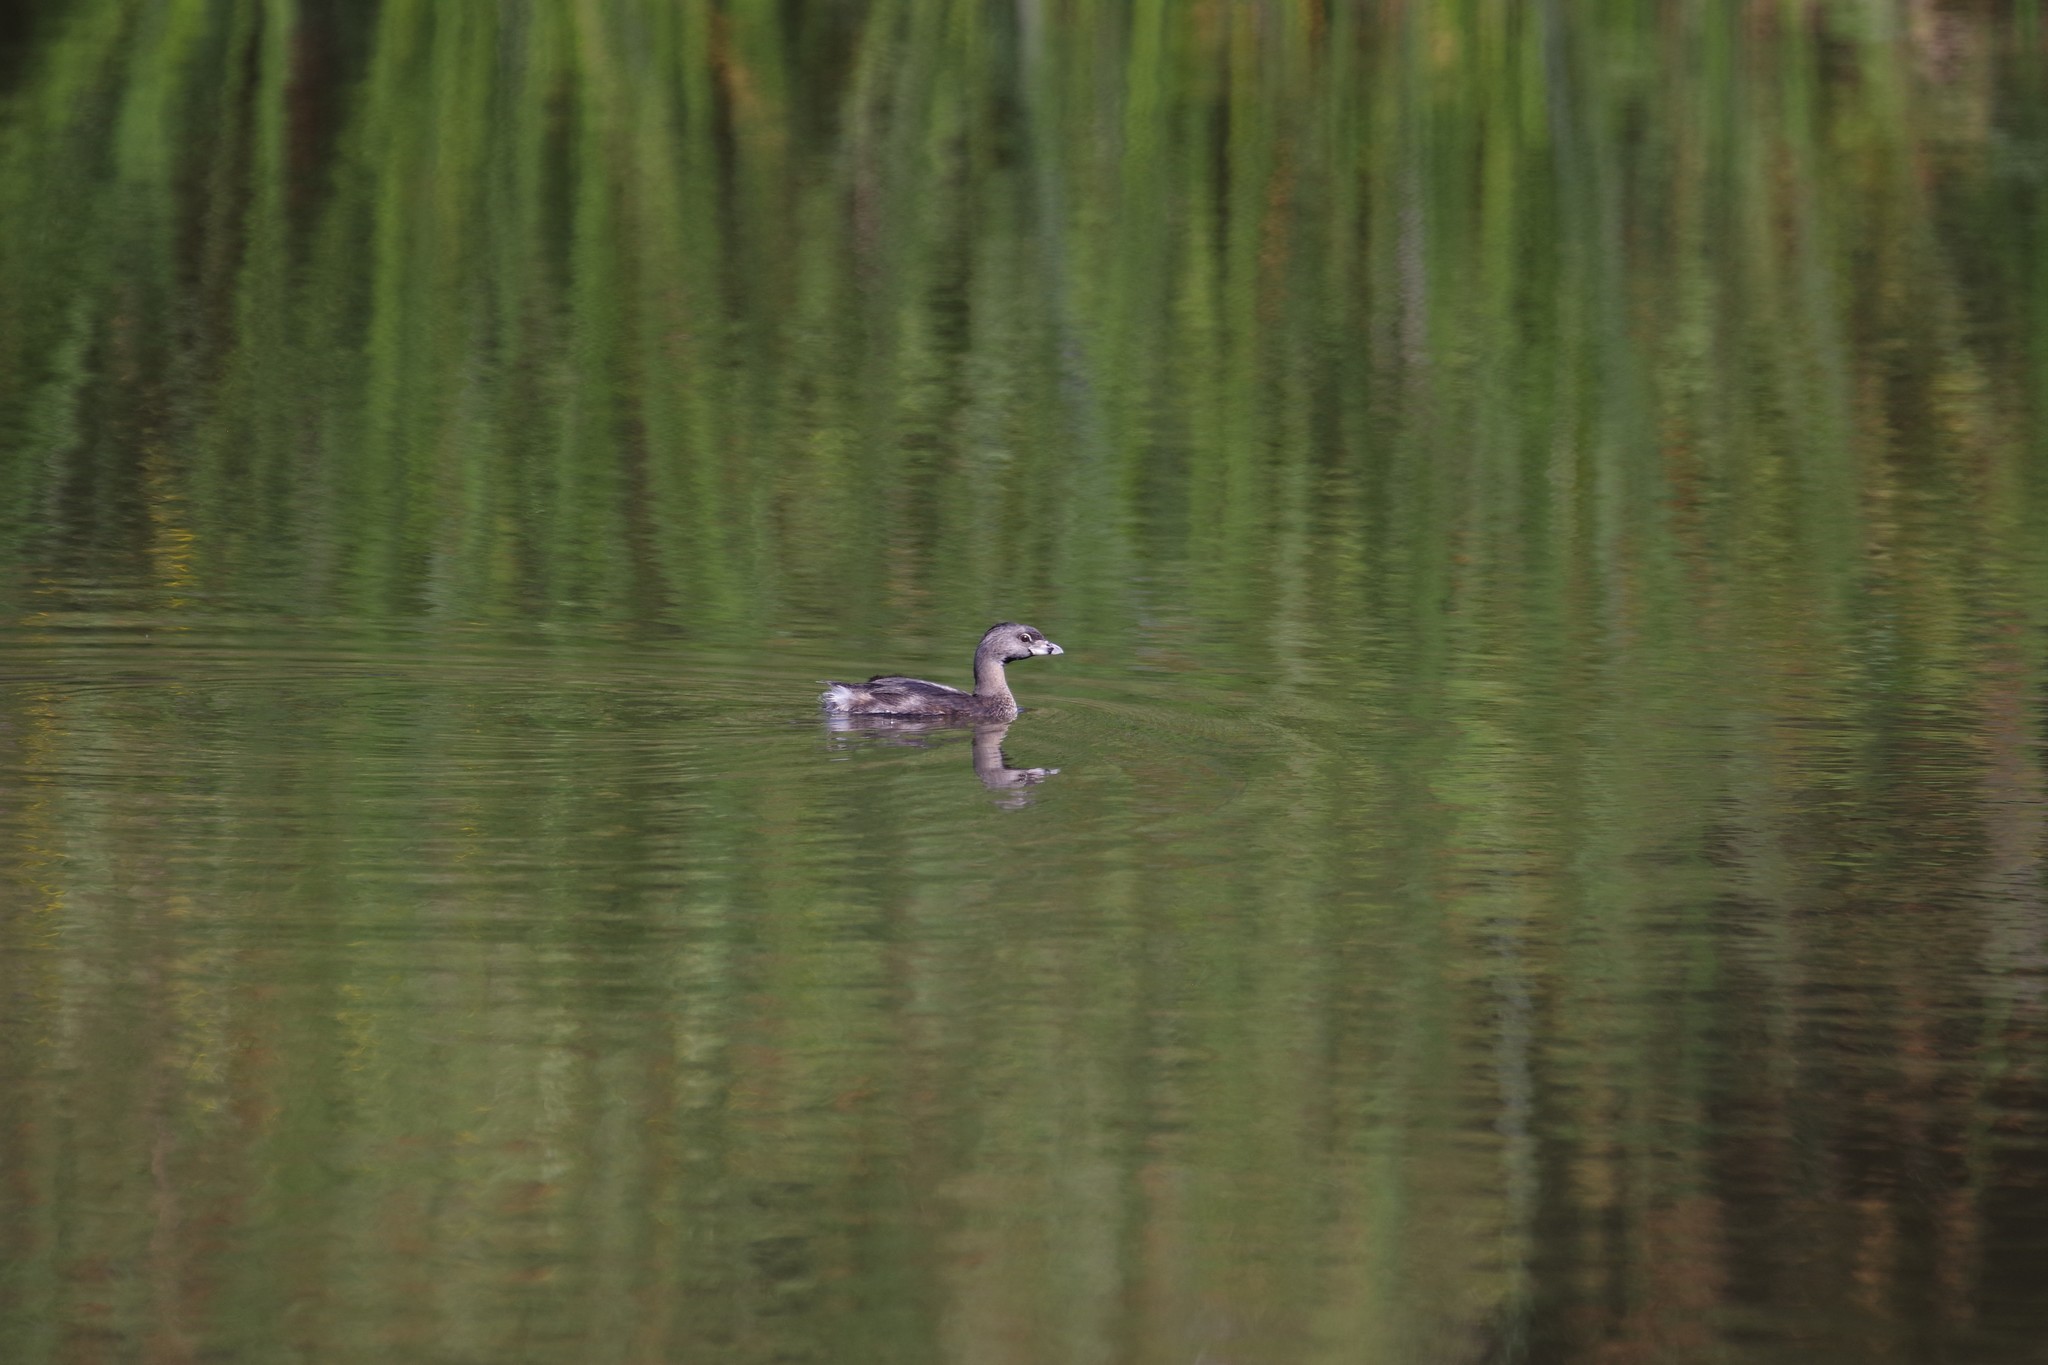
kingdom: Animalia
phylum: Chordata
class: Aves
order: Podicipediformes
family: Podicipedidae
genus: Podilymbus
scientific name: Podilymbus podiceps
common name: Pied-billed grebe
